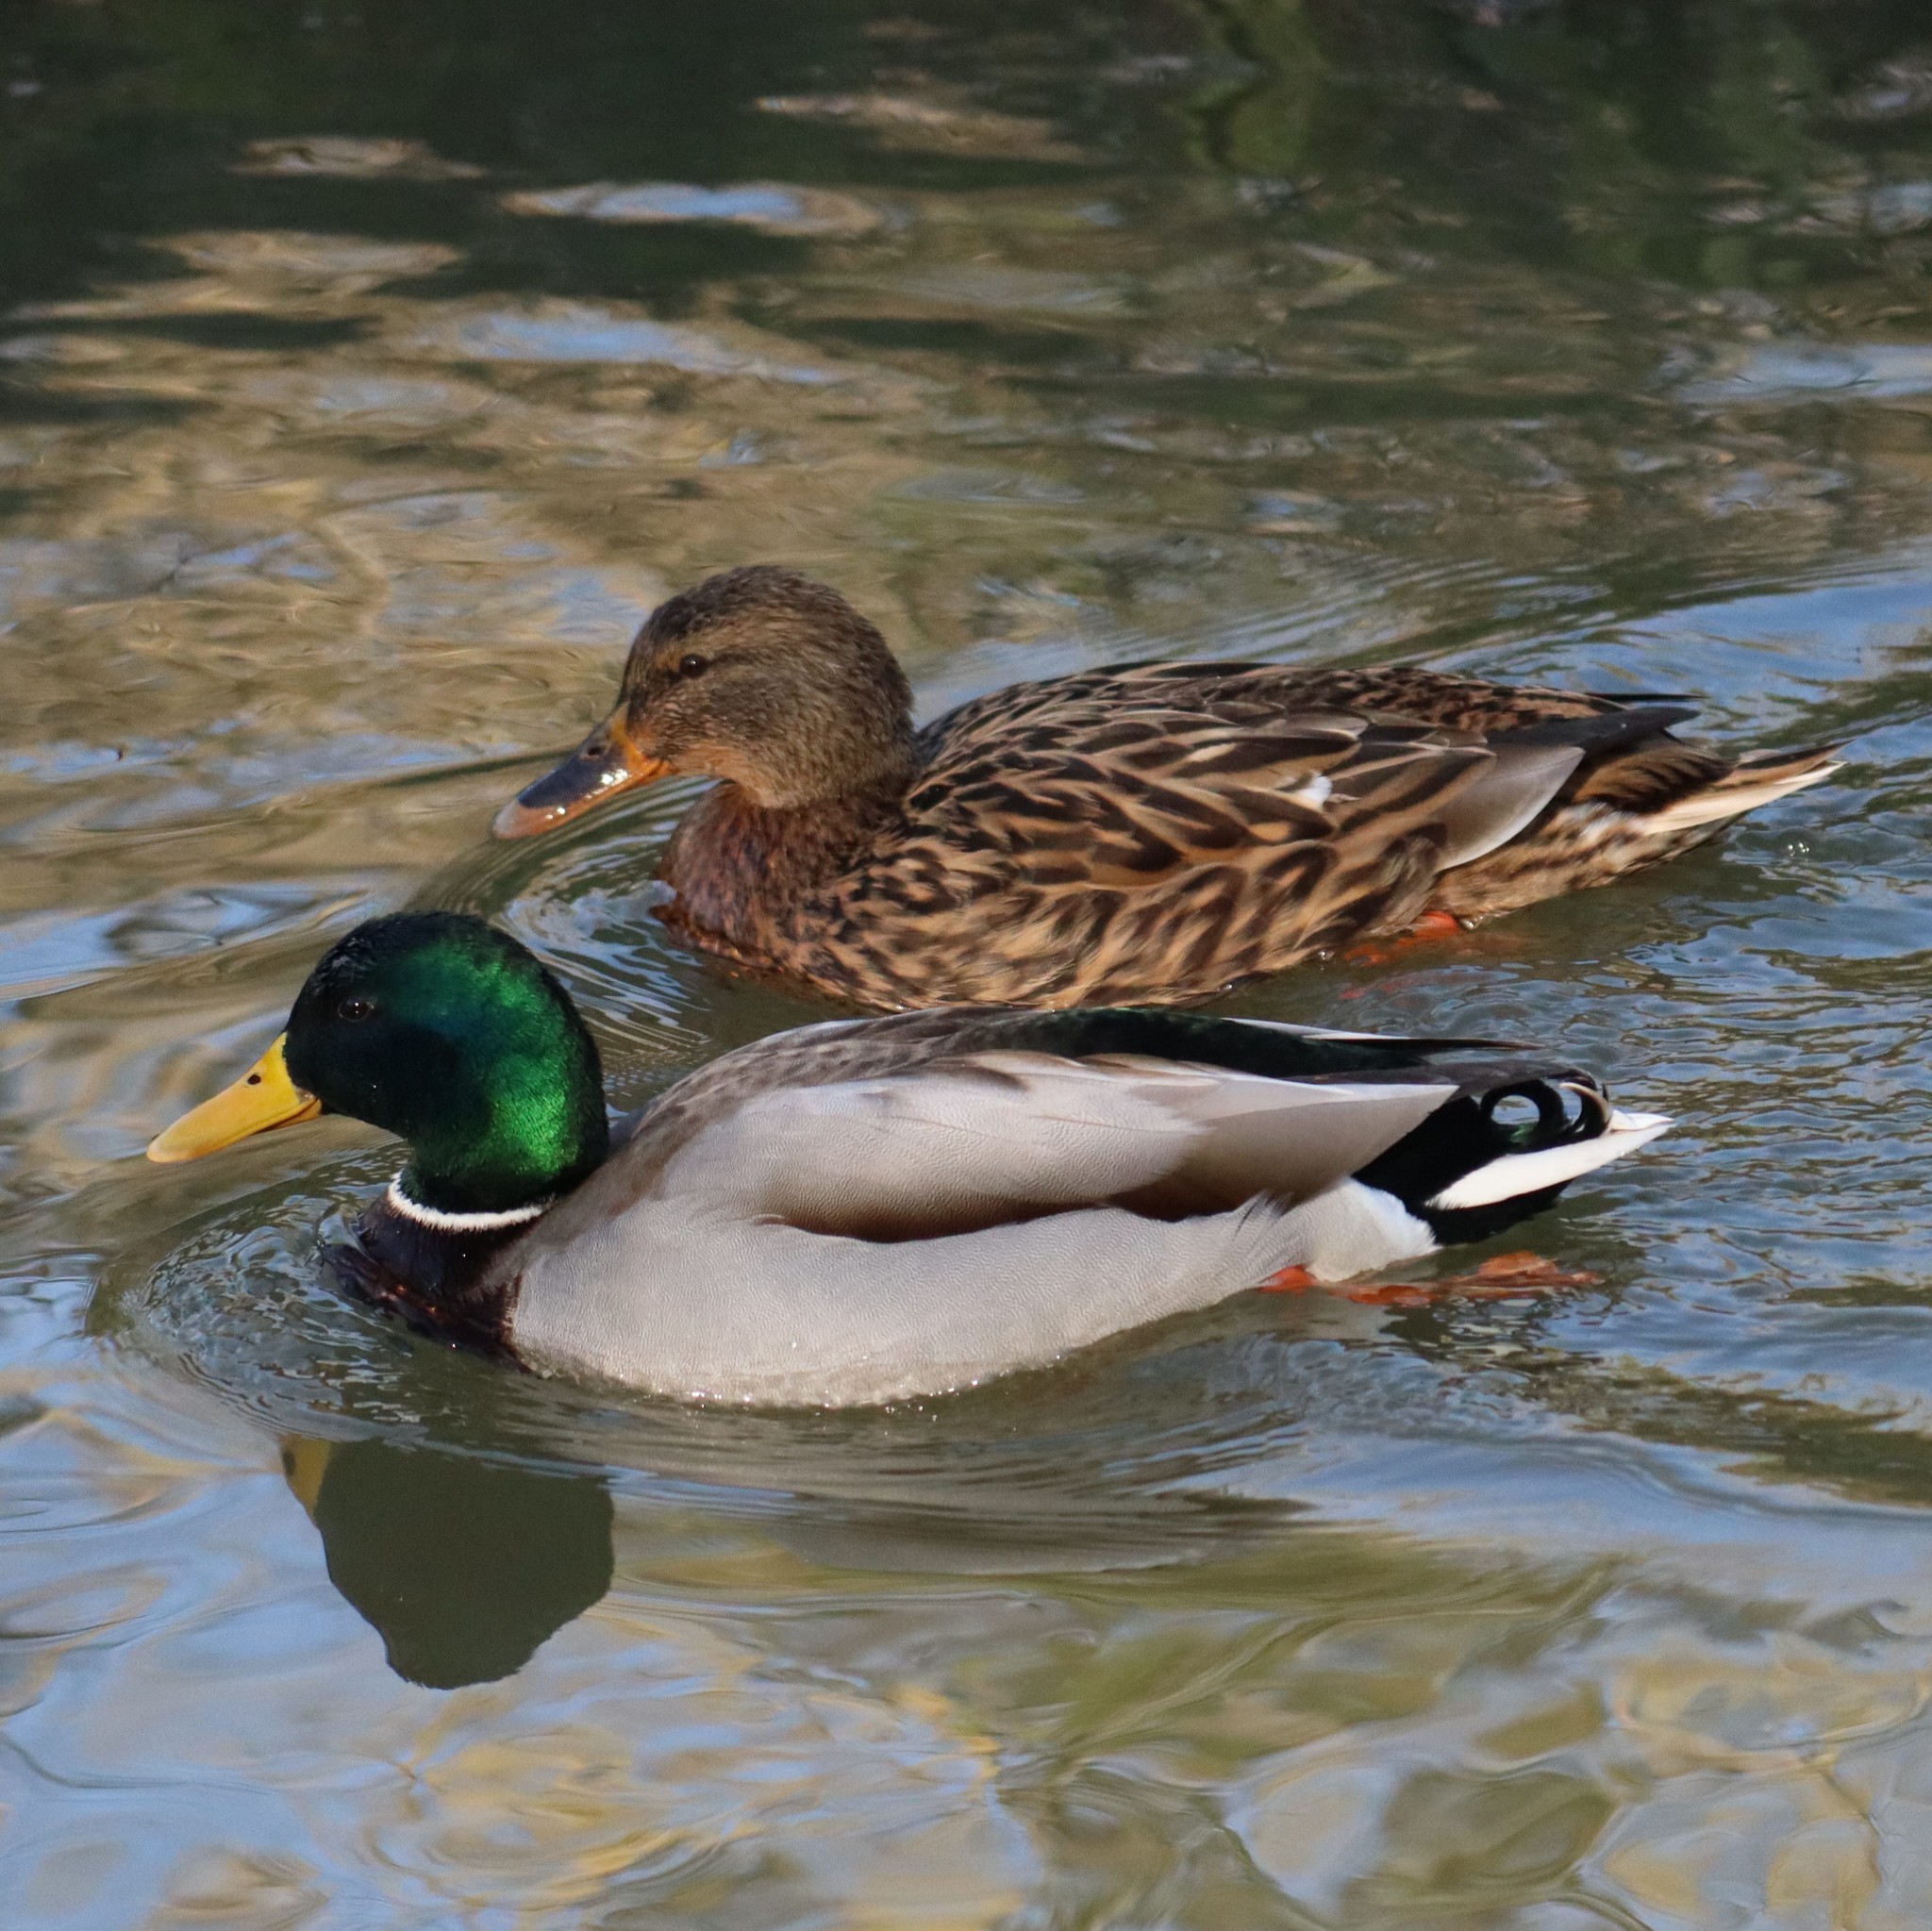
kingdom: Animalia
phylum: Chordata
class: Aves
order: Anseriformes
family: Anatidae
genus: Anas
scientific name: Anas platyrhynchos
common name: Mallard
